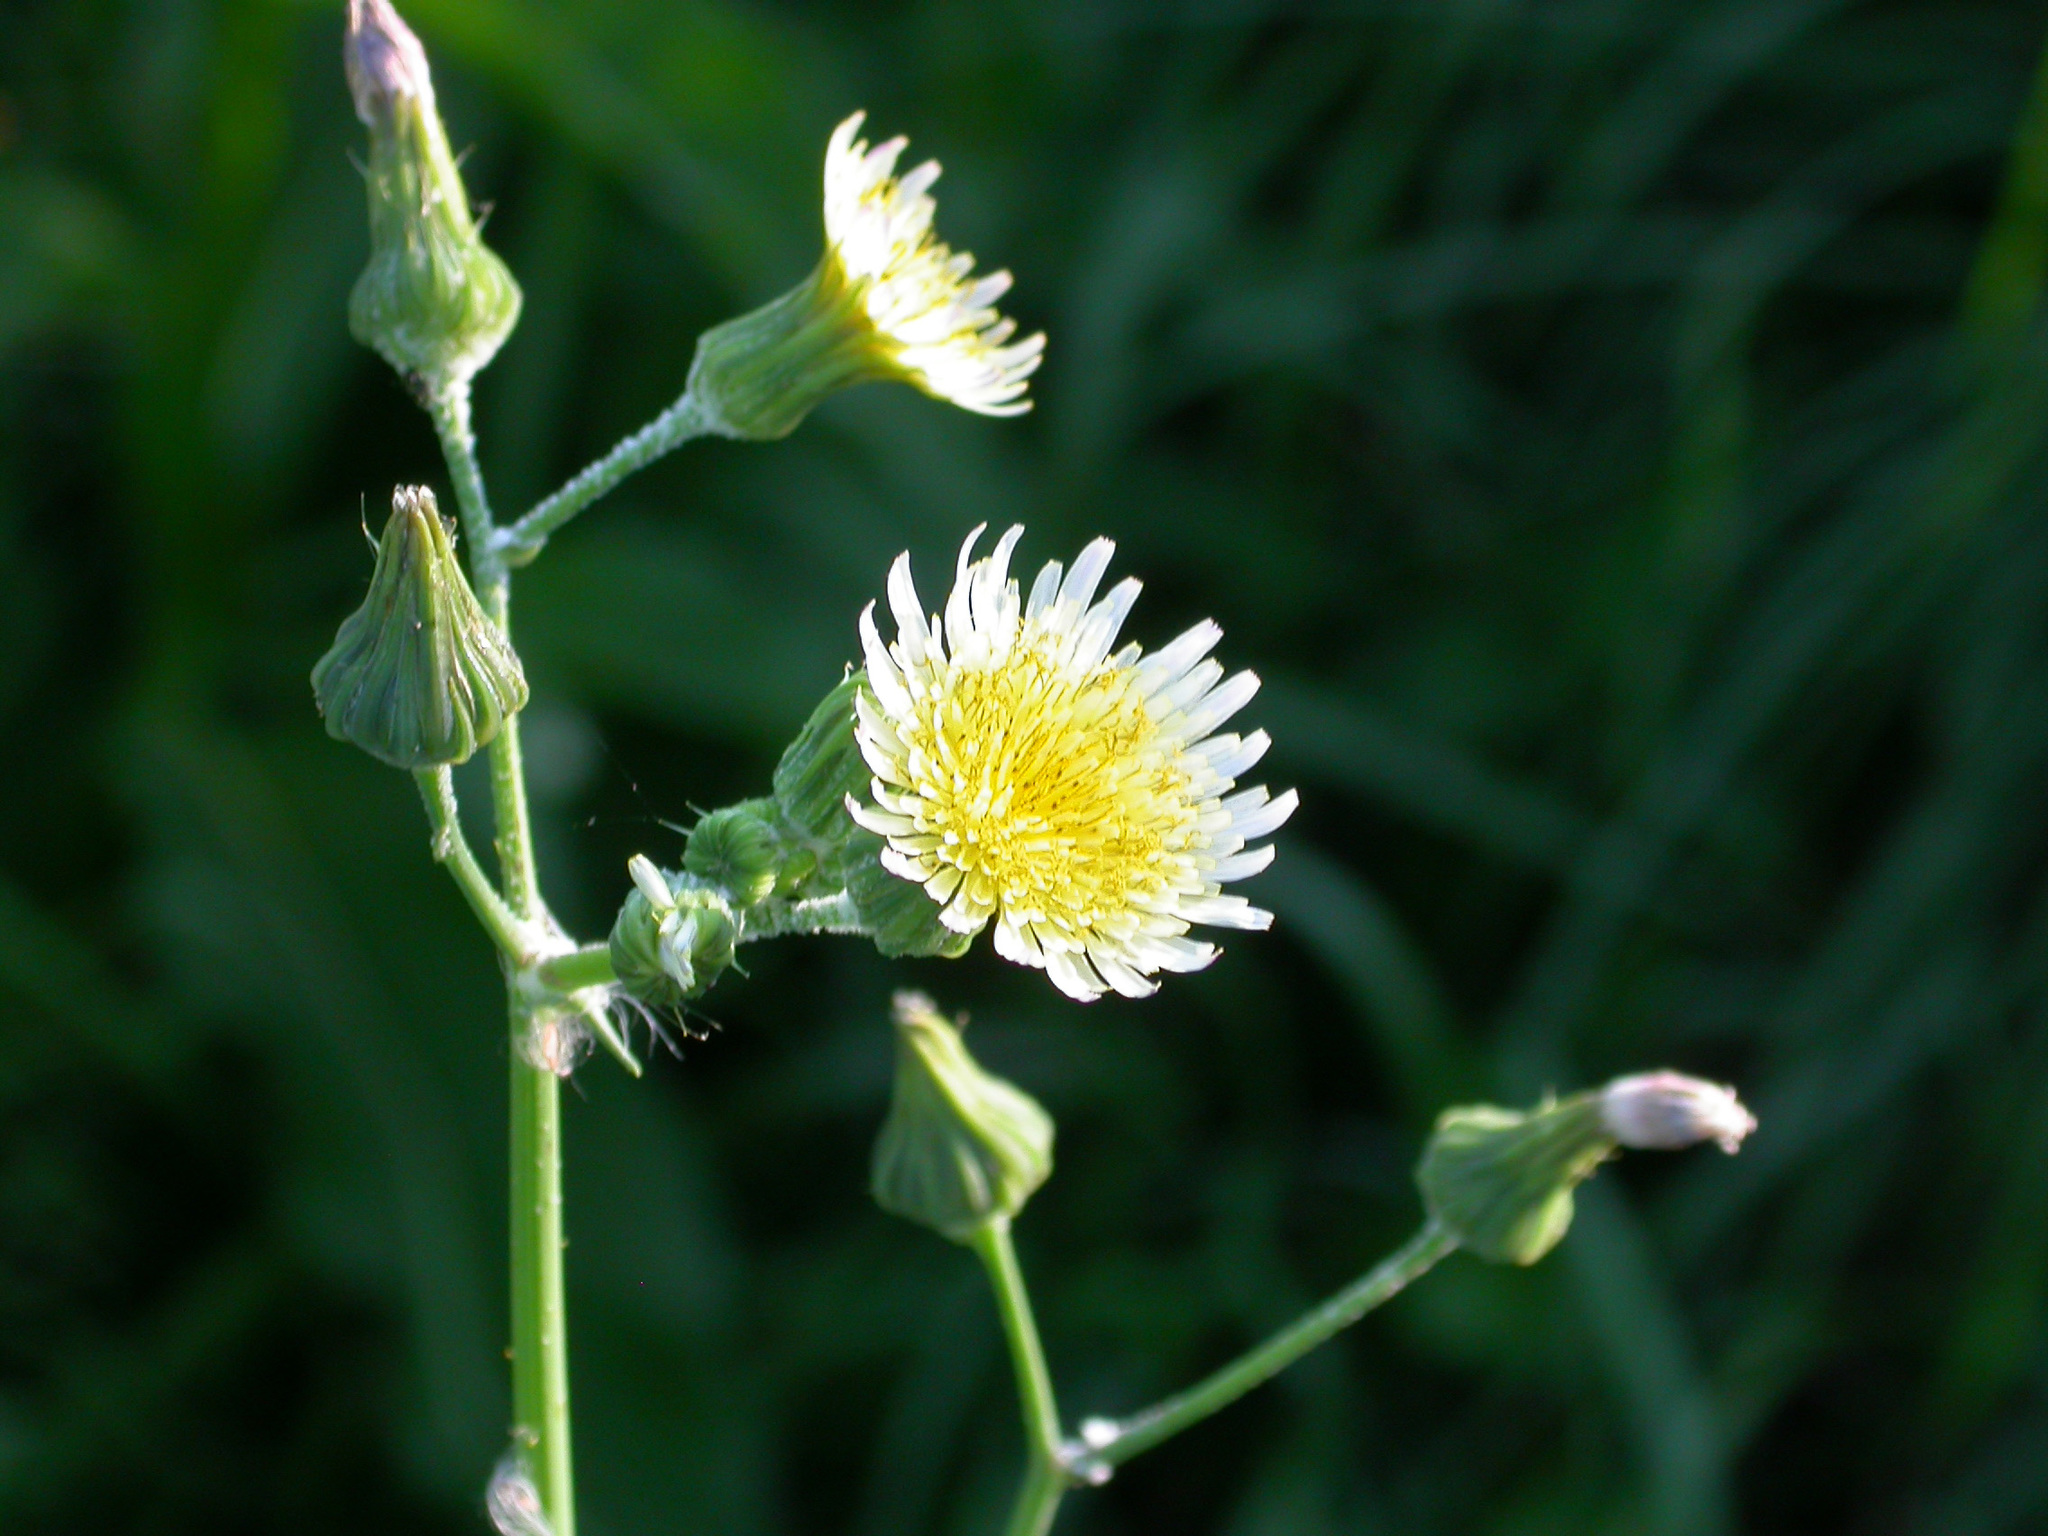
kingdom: Plantae
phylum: Tracheophyta
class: Magnoliopsida
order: Asterales
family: Asteraceae
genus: Sonchus
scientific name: Sonchus oleraceus
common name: Common sowthistle
